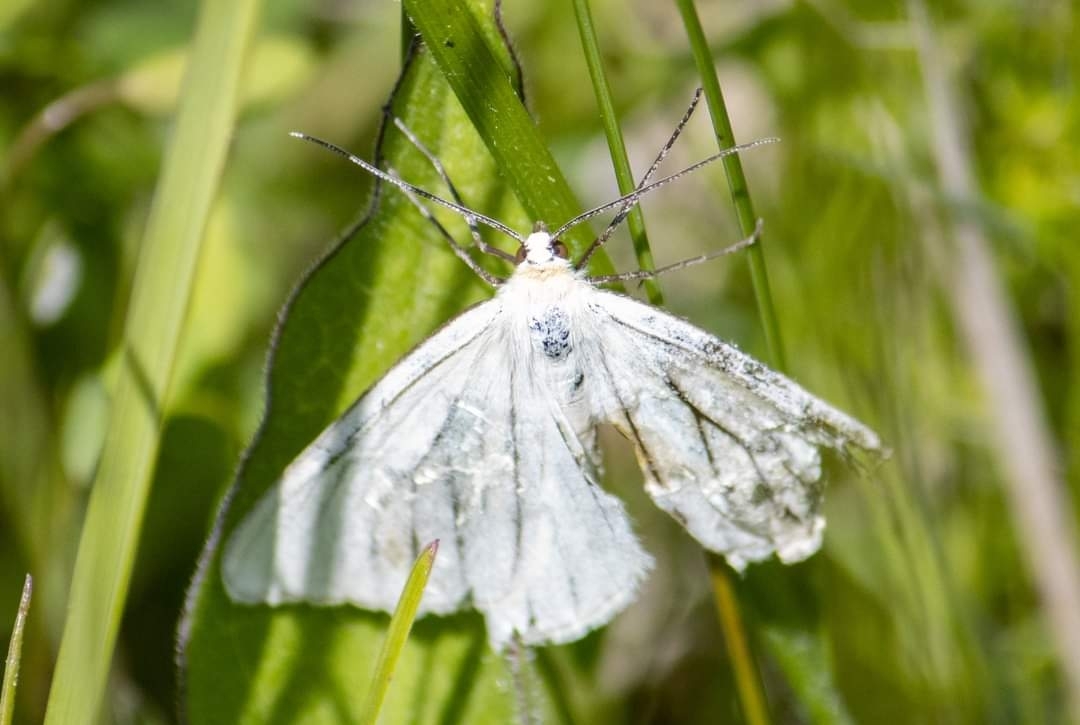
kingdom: Animalia
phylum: Arthropoda
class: Insecta
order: Lepidoptera
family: Geometridae
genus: Siona
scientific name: Siona lineata
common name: Black-veined moth
